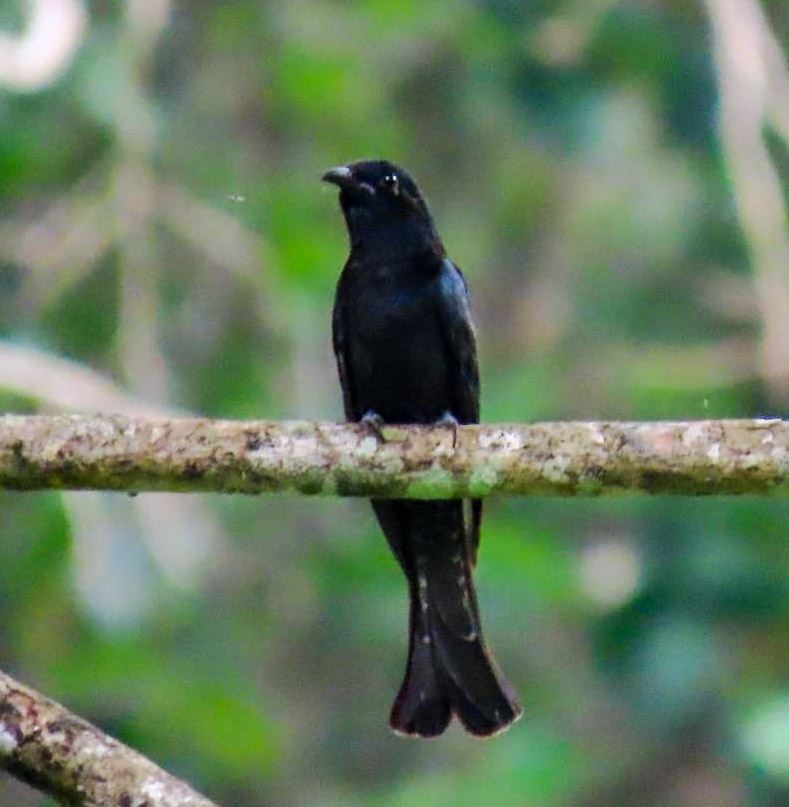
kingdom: Animalia
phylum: Chordata
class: Aves
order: Cuculiformes
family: Cuculidae
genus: Surniculus
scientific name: Surniculus lugubris
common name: Square-tailed drongo-cuckoo
